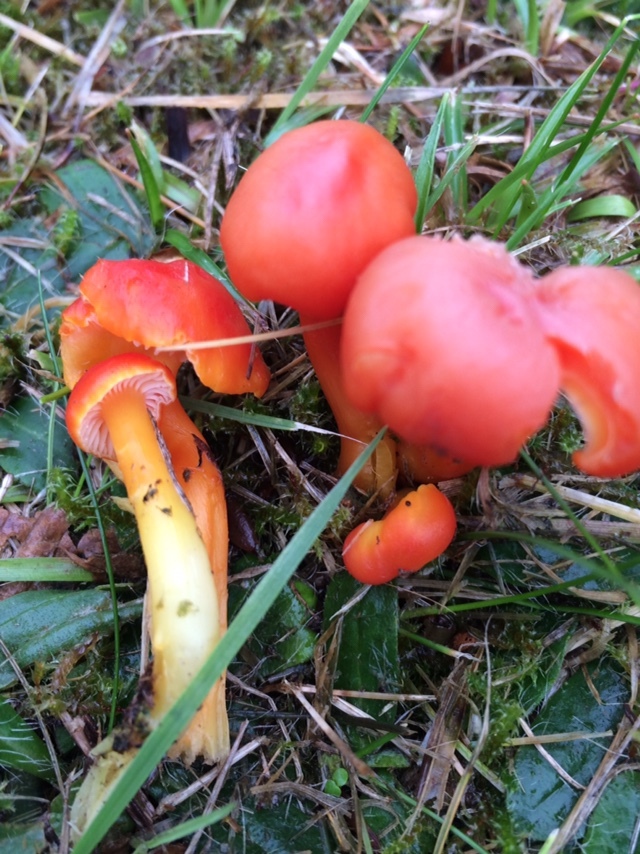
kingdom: Fungi
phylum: Basidiomycota
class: Agaricomycetes
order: Agaricales
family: Hygrophoraceae
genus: Hygrocybe
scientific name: Hygrocybe reidii
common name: Honey waxcap
